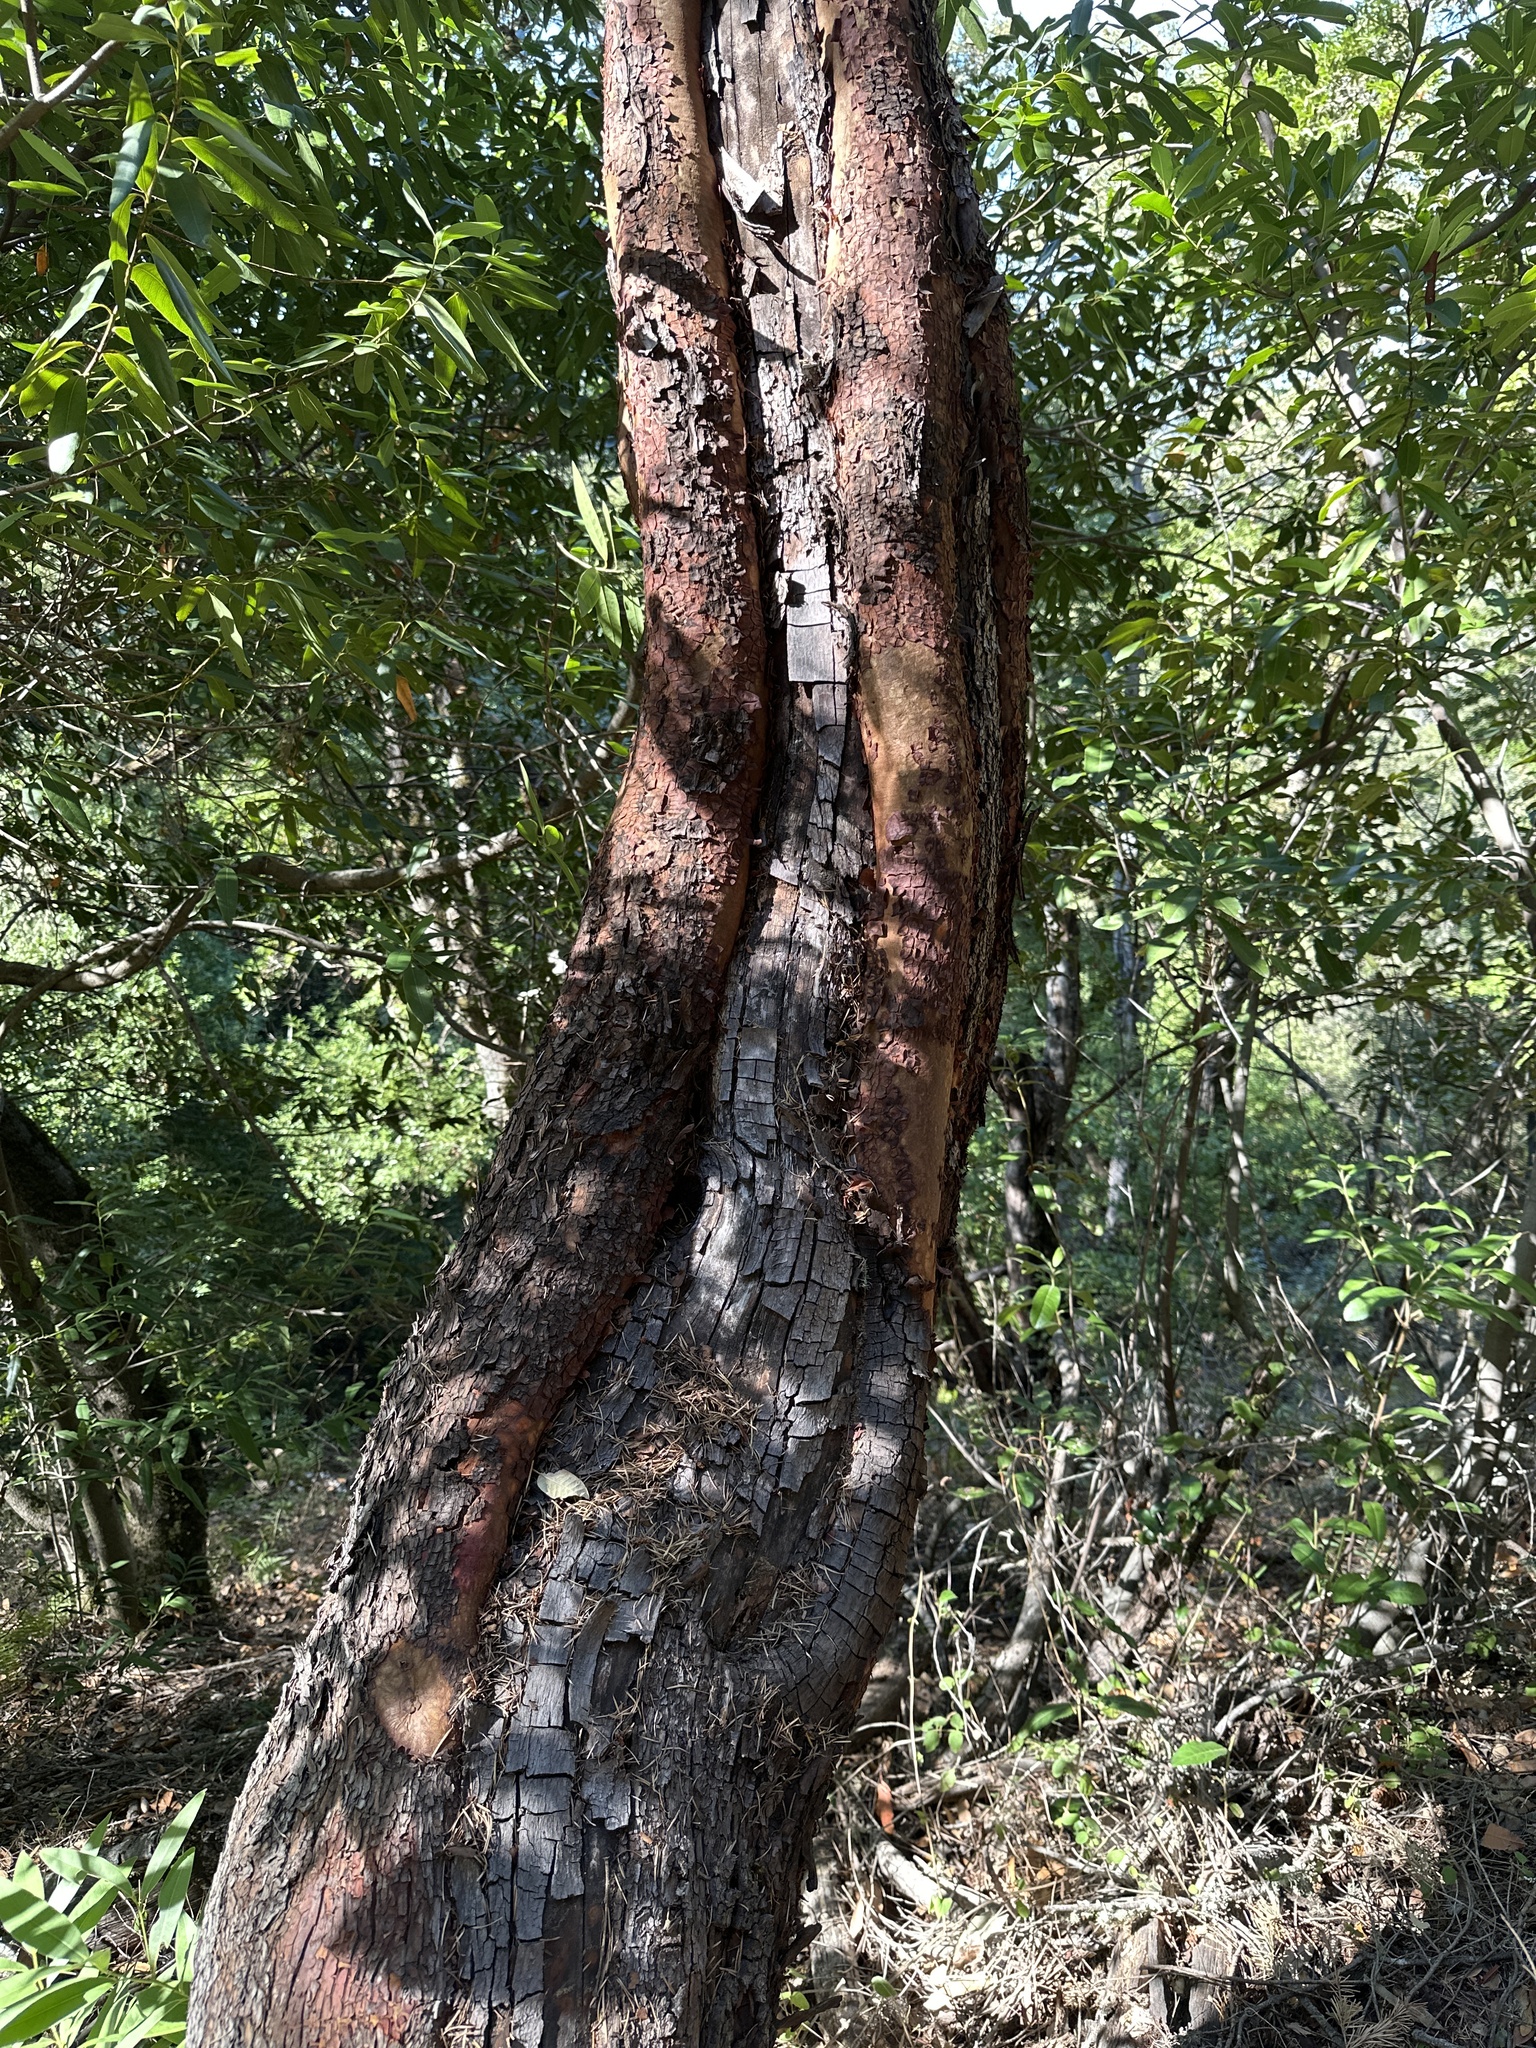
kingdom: Plantae
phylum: Tracheophyta
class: Magnoliopsida
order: Ericales
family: Ericaceae
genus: Arbutus
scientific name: Arbutus menziesii
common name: Pacific madrone
